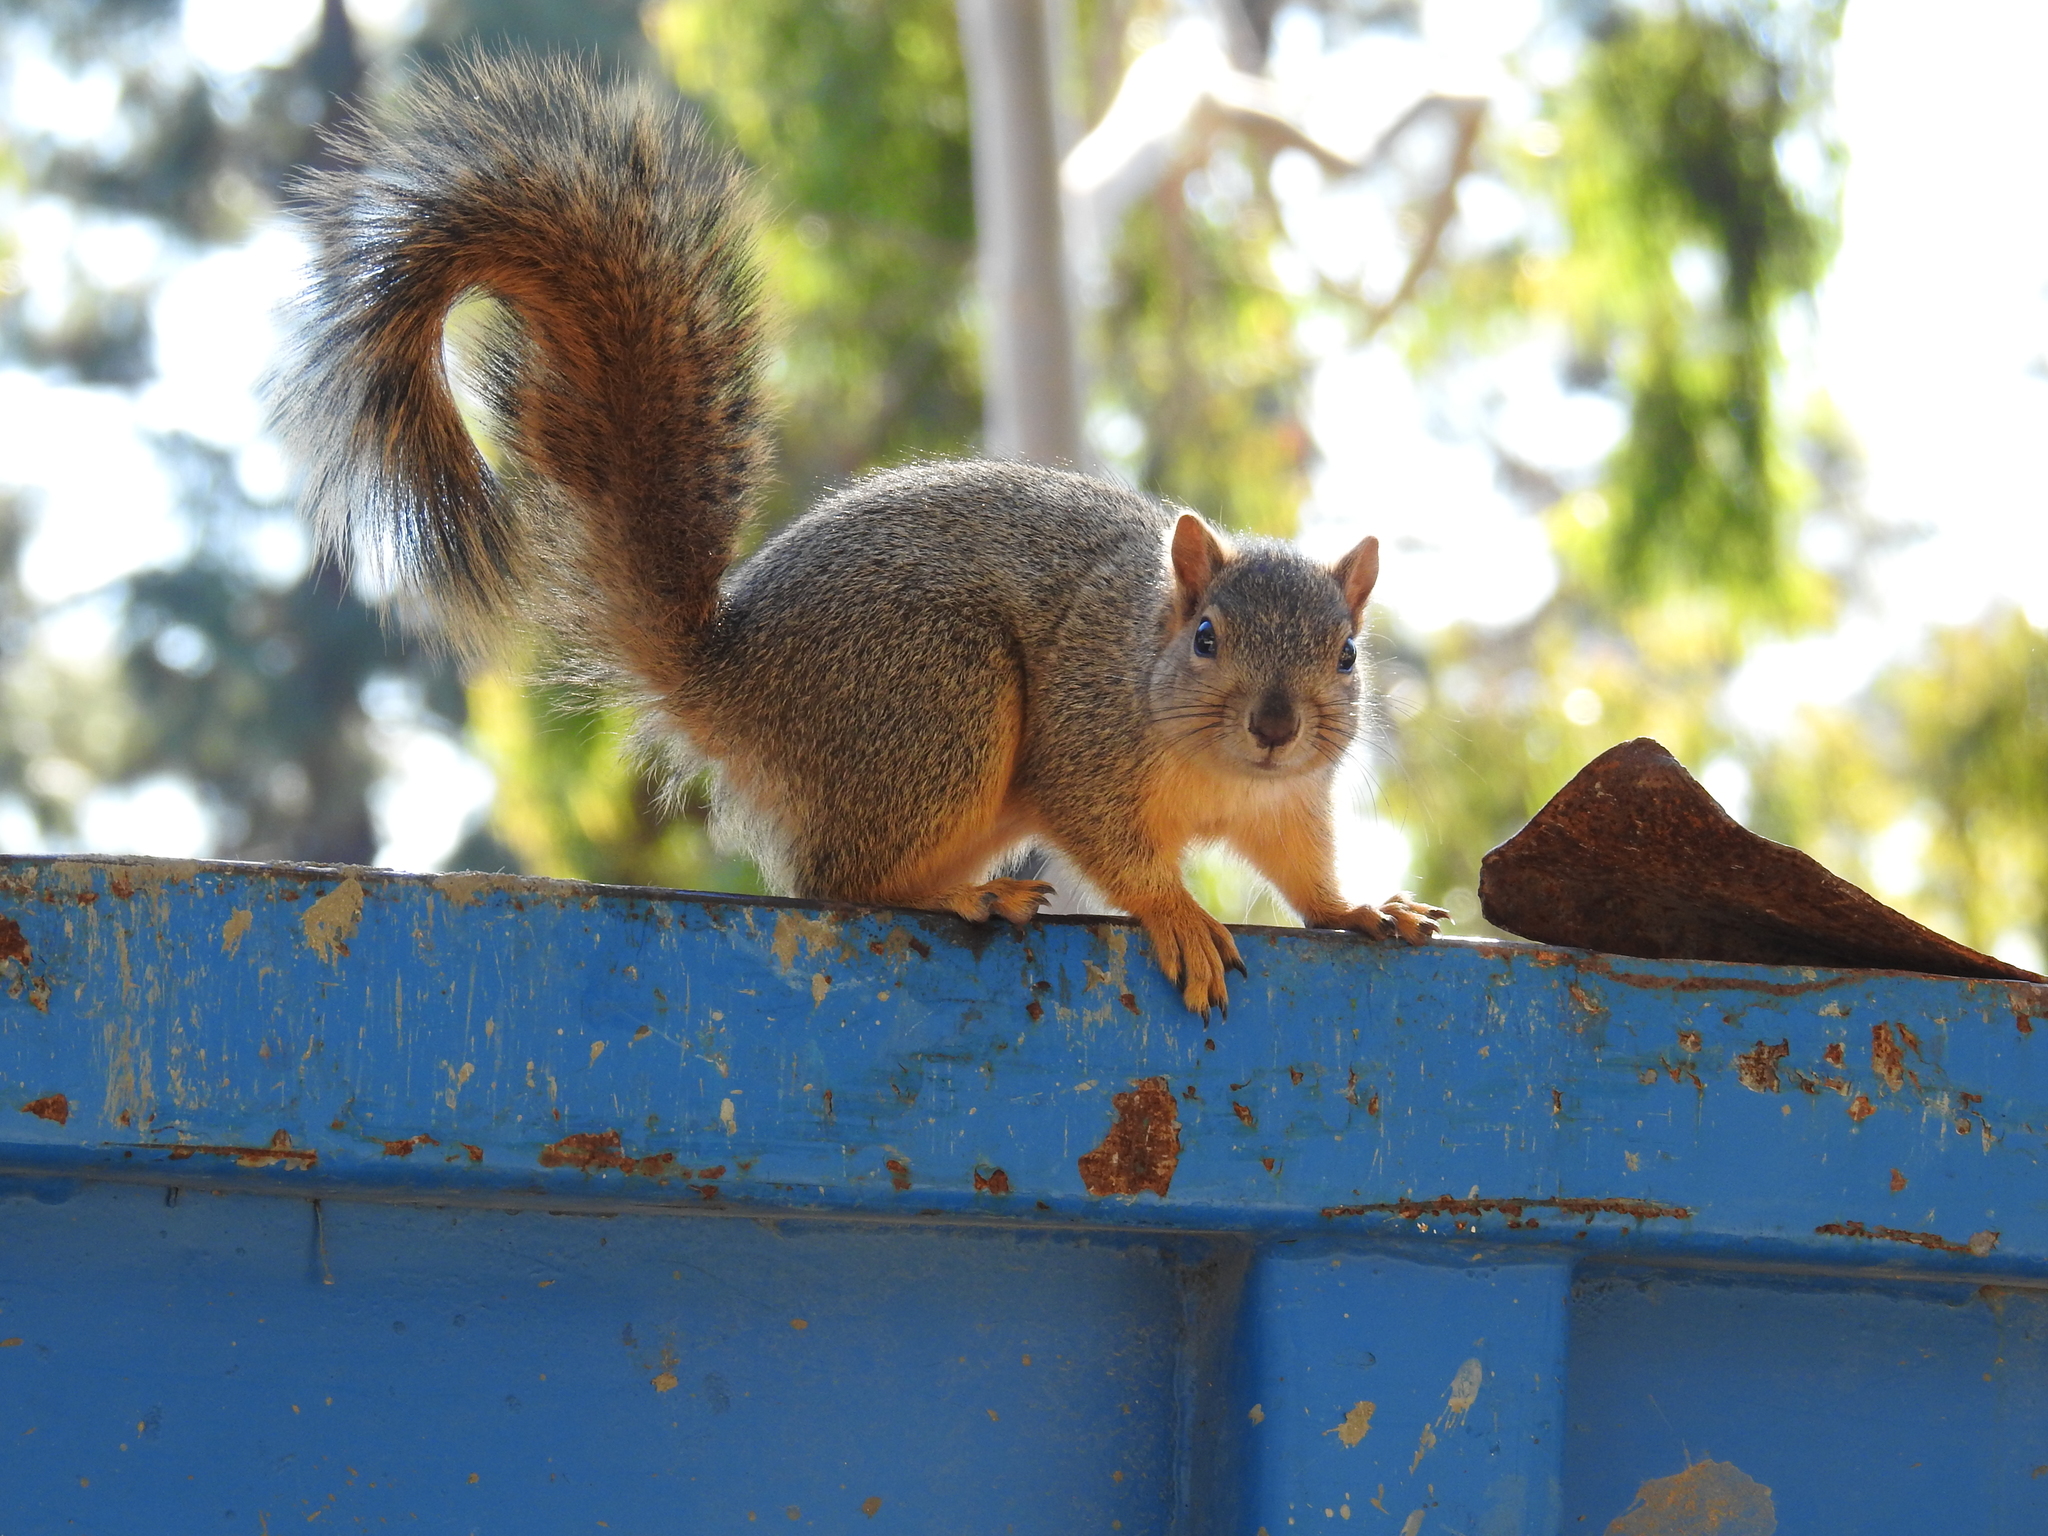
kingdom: Animalia
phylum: Chordata
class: Mammalia
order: Rodentia
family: Sciuridae
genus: Sciurus
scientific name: Sciurus niger
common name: Fox squirrel
